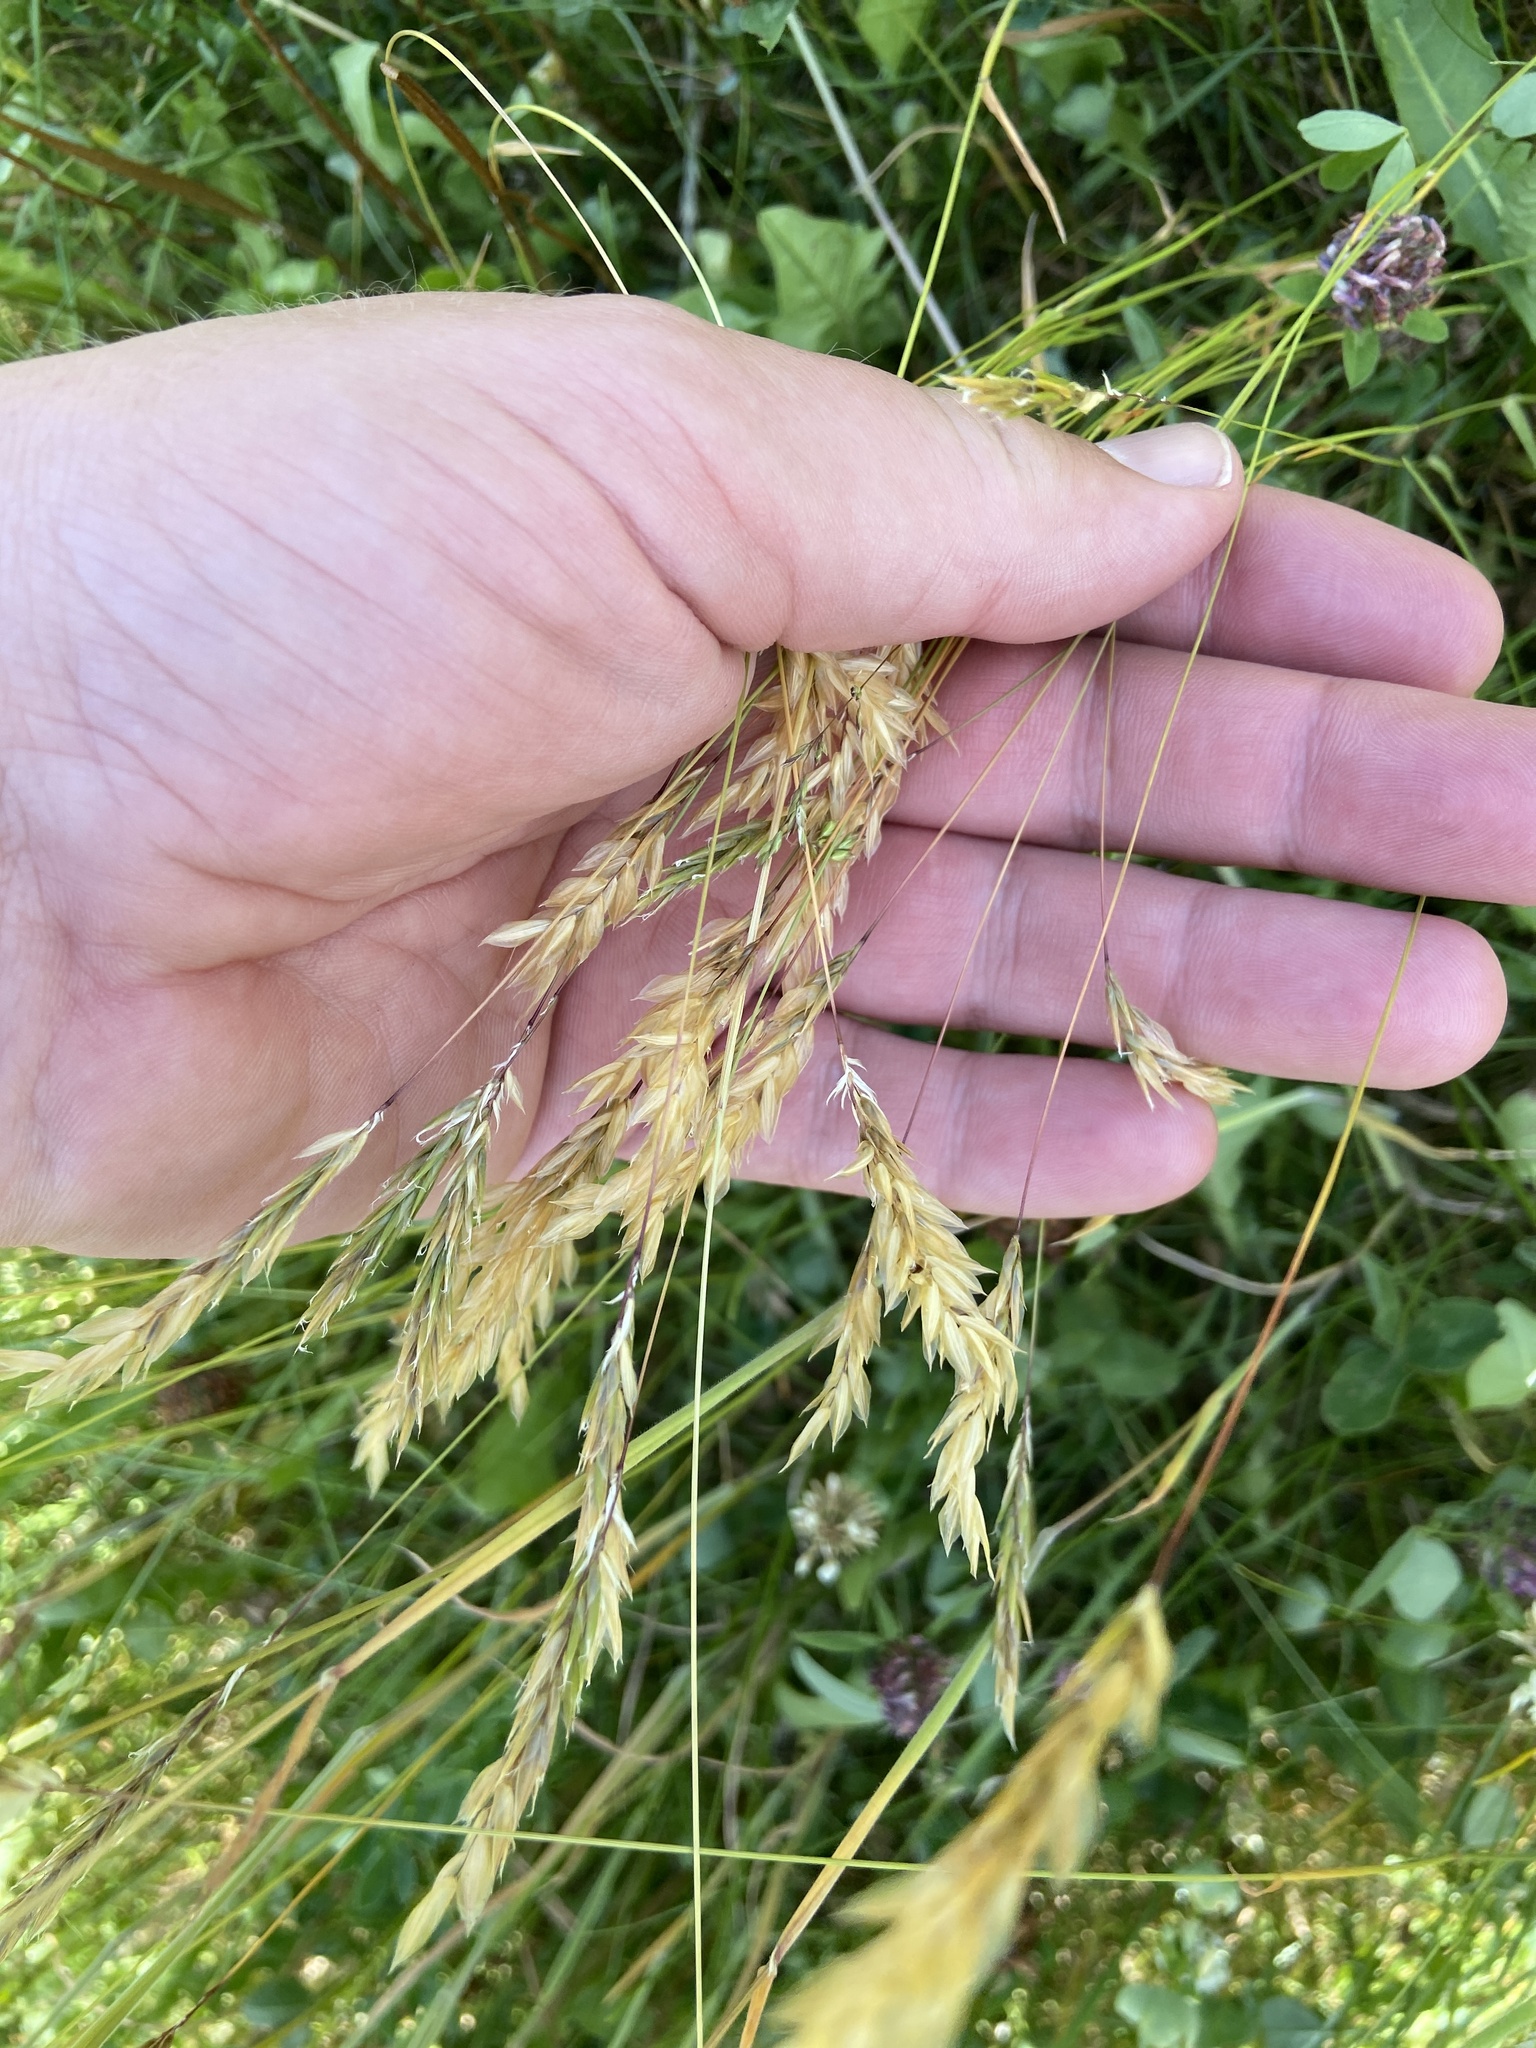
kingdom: Plantae
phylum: Tracheophyta
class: Liliopsida
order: Poales
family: Poaceae
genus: Anthoxanthum
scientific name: Anthoxanthum odoratum
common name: Sweet vernalgrass
